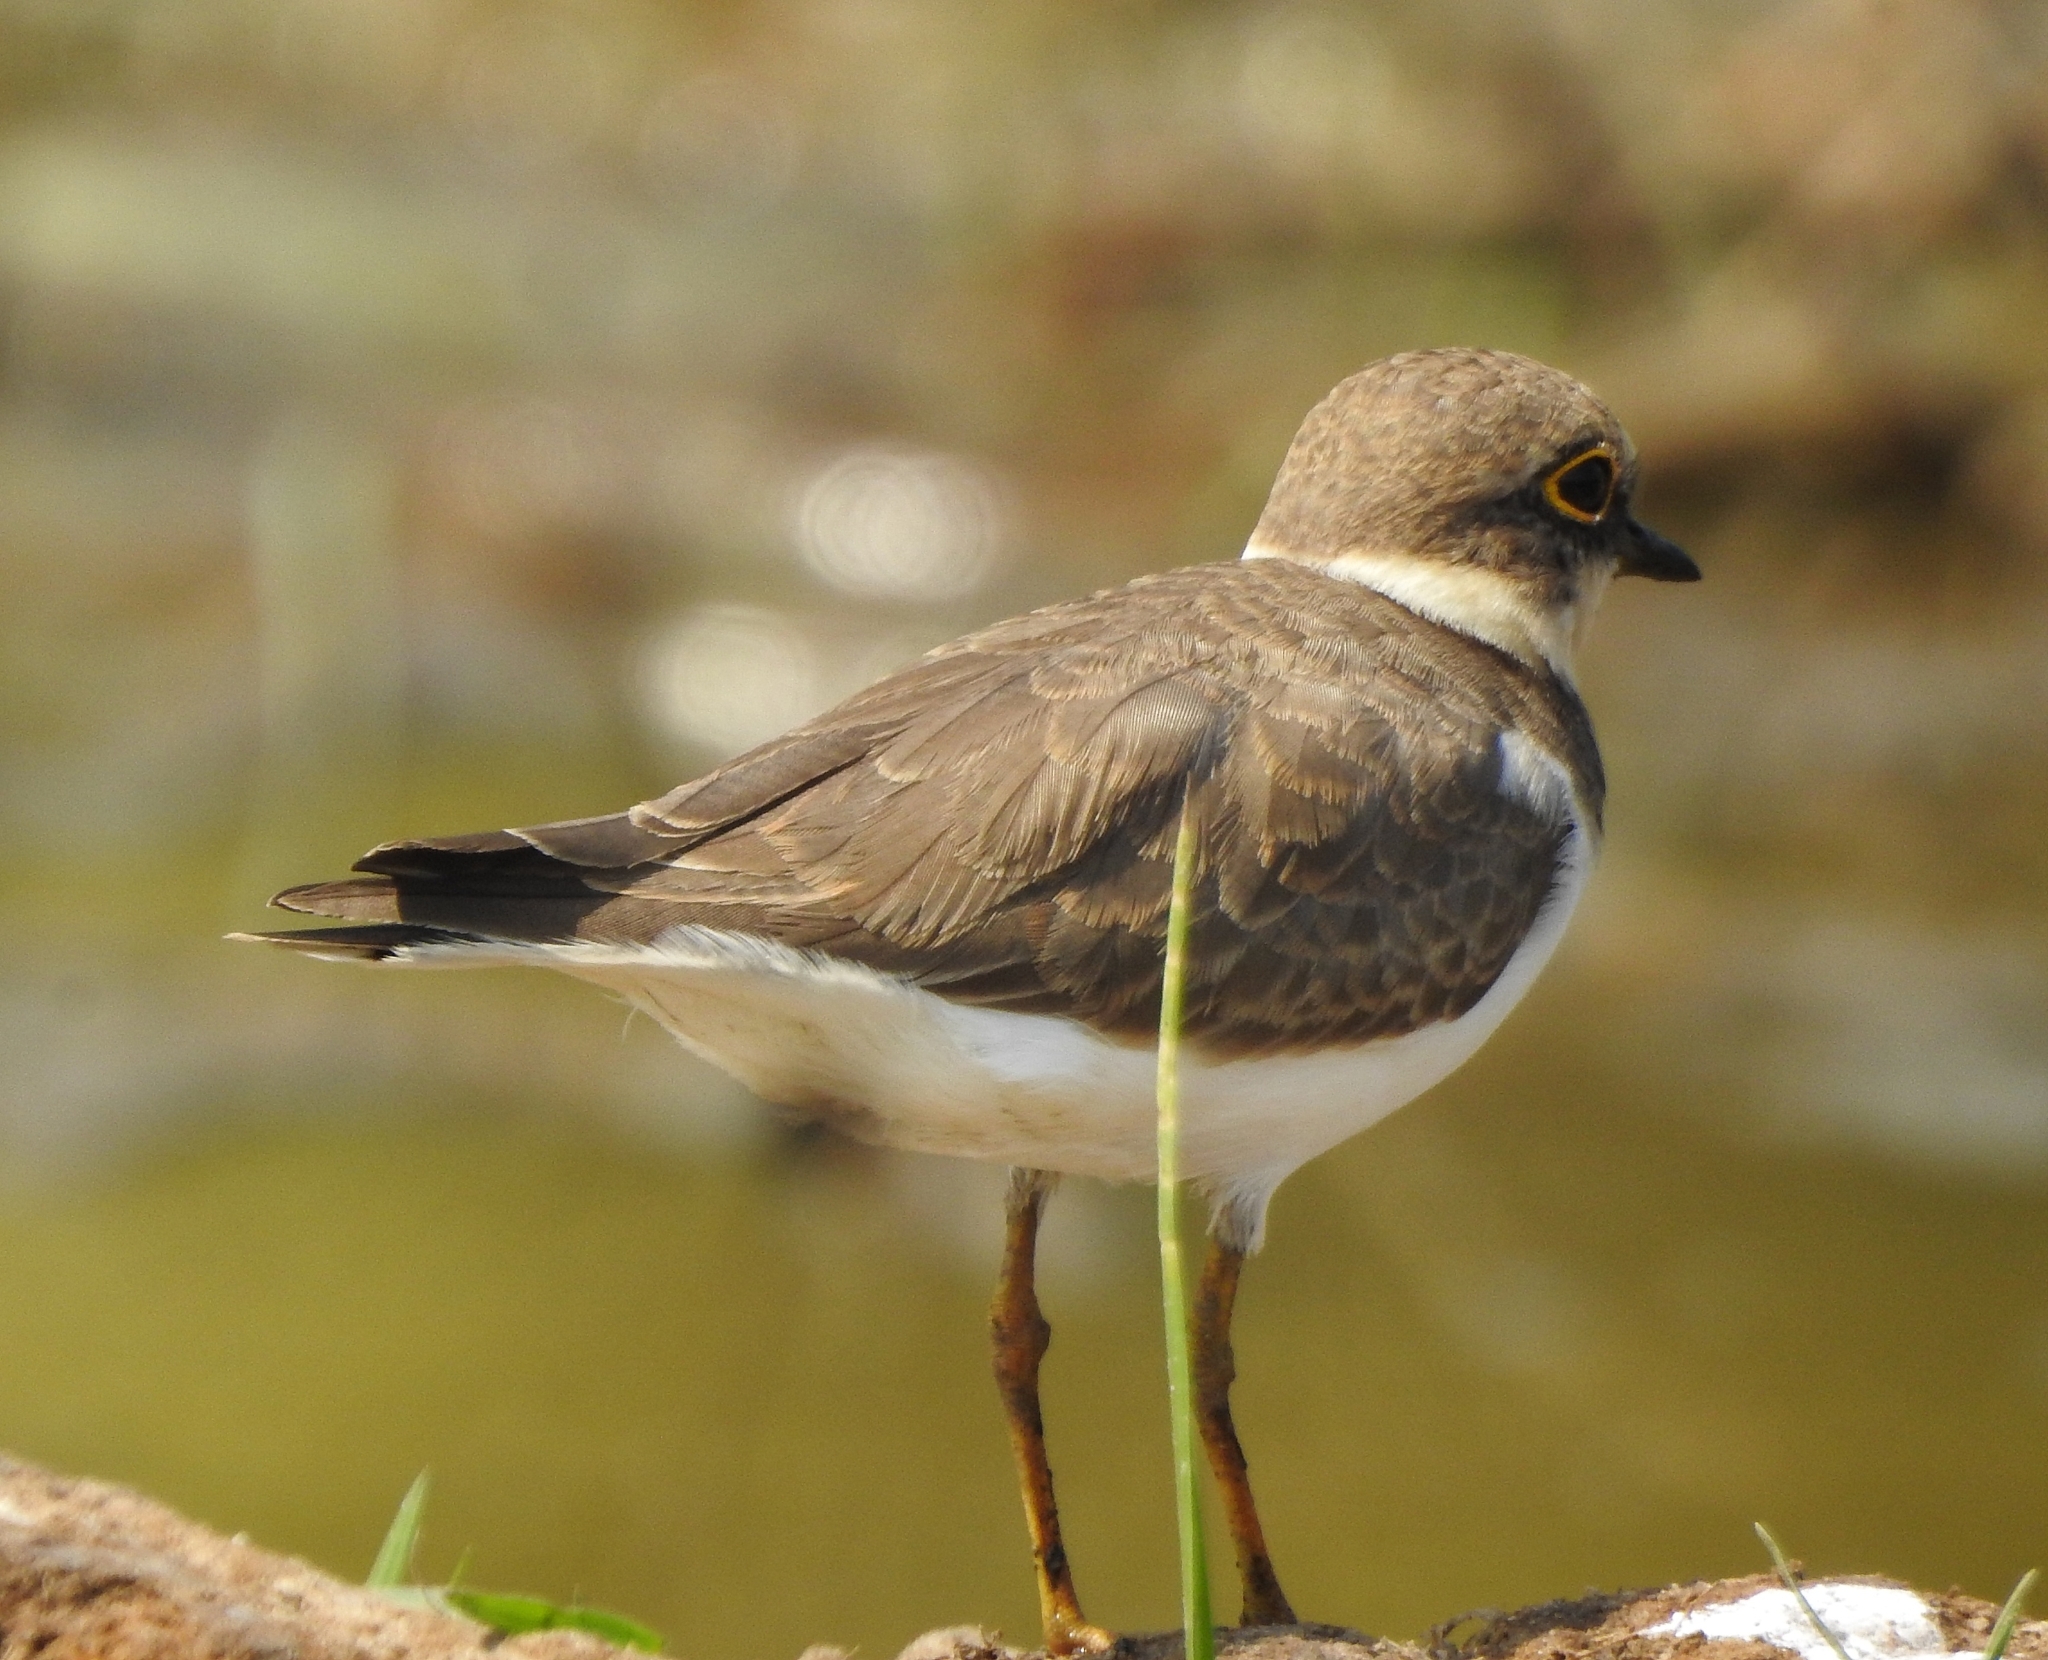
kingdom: Animalia
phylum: Chordata
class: Aves
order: Charadriiformes
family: Charadriidae
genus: Charadrius
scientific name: Charadrius dubius
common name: Little ringed plover
